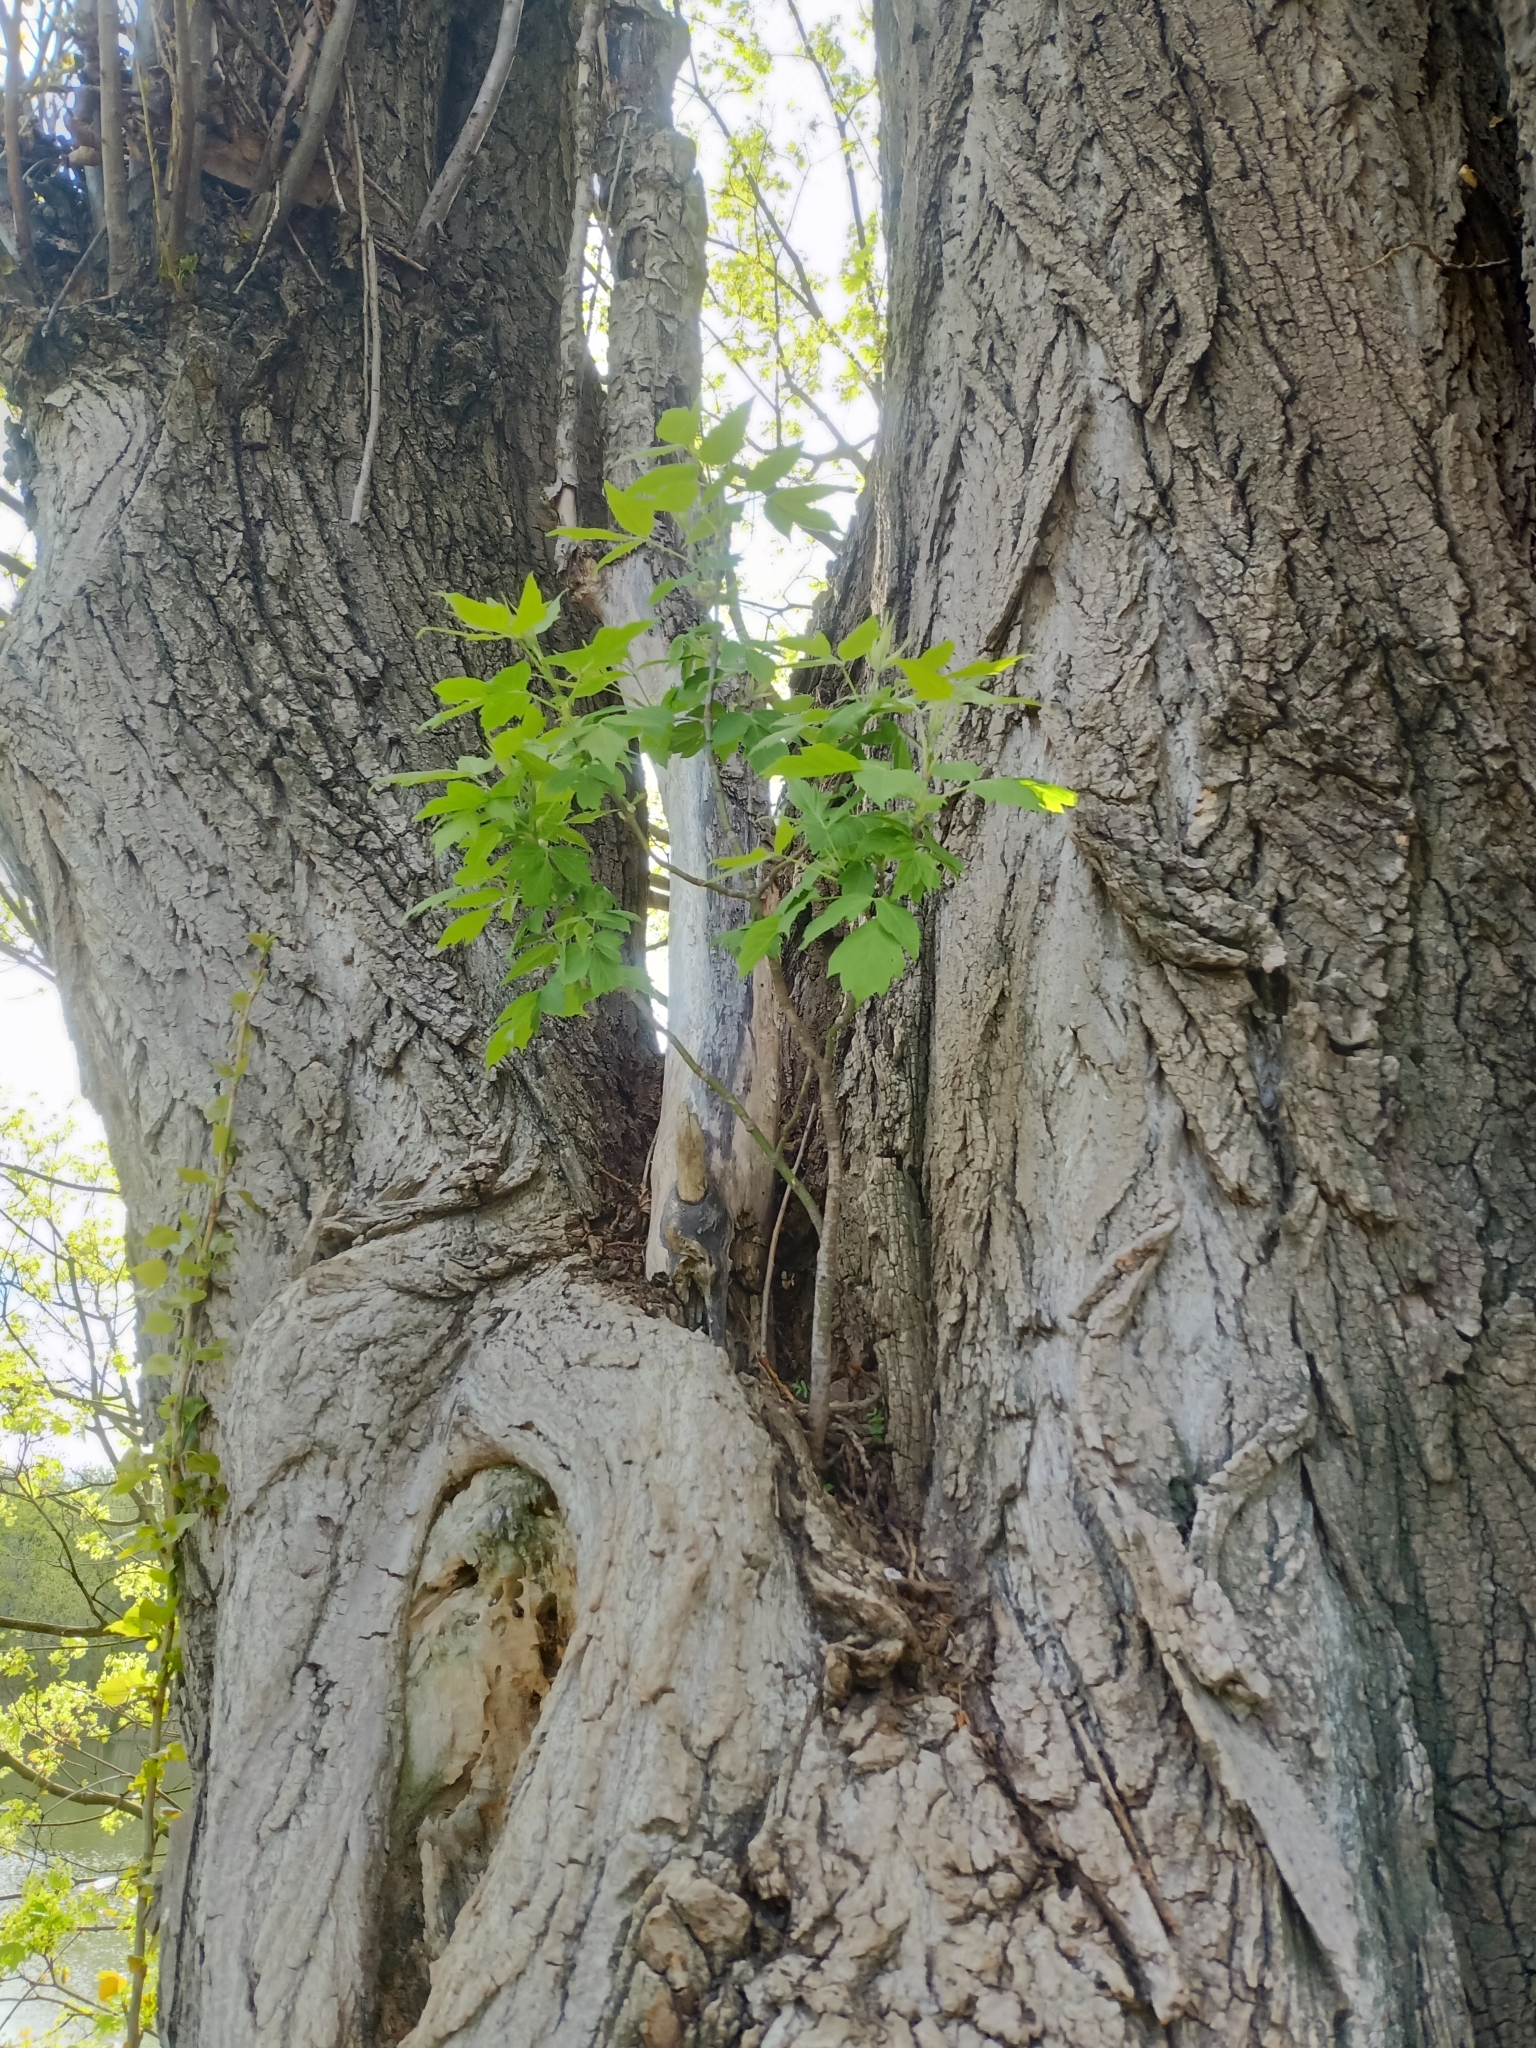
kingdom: Plantae
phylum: Tracheophyta
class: Magnoliopsida
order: Sapindales
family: Sapindaceae
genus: Acer
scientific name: Acer negundo
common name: Ashleaf maple
